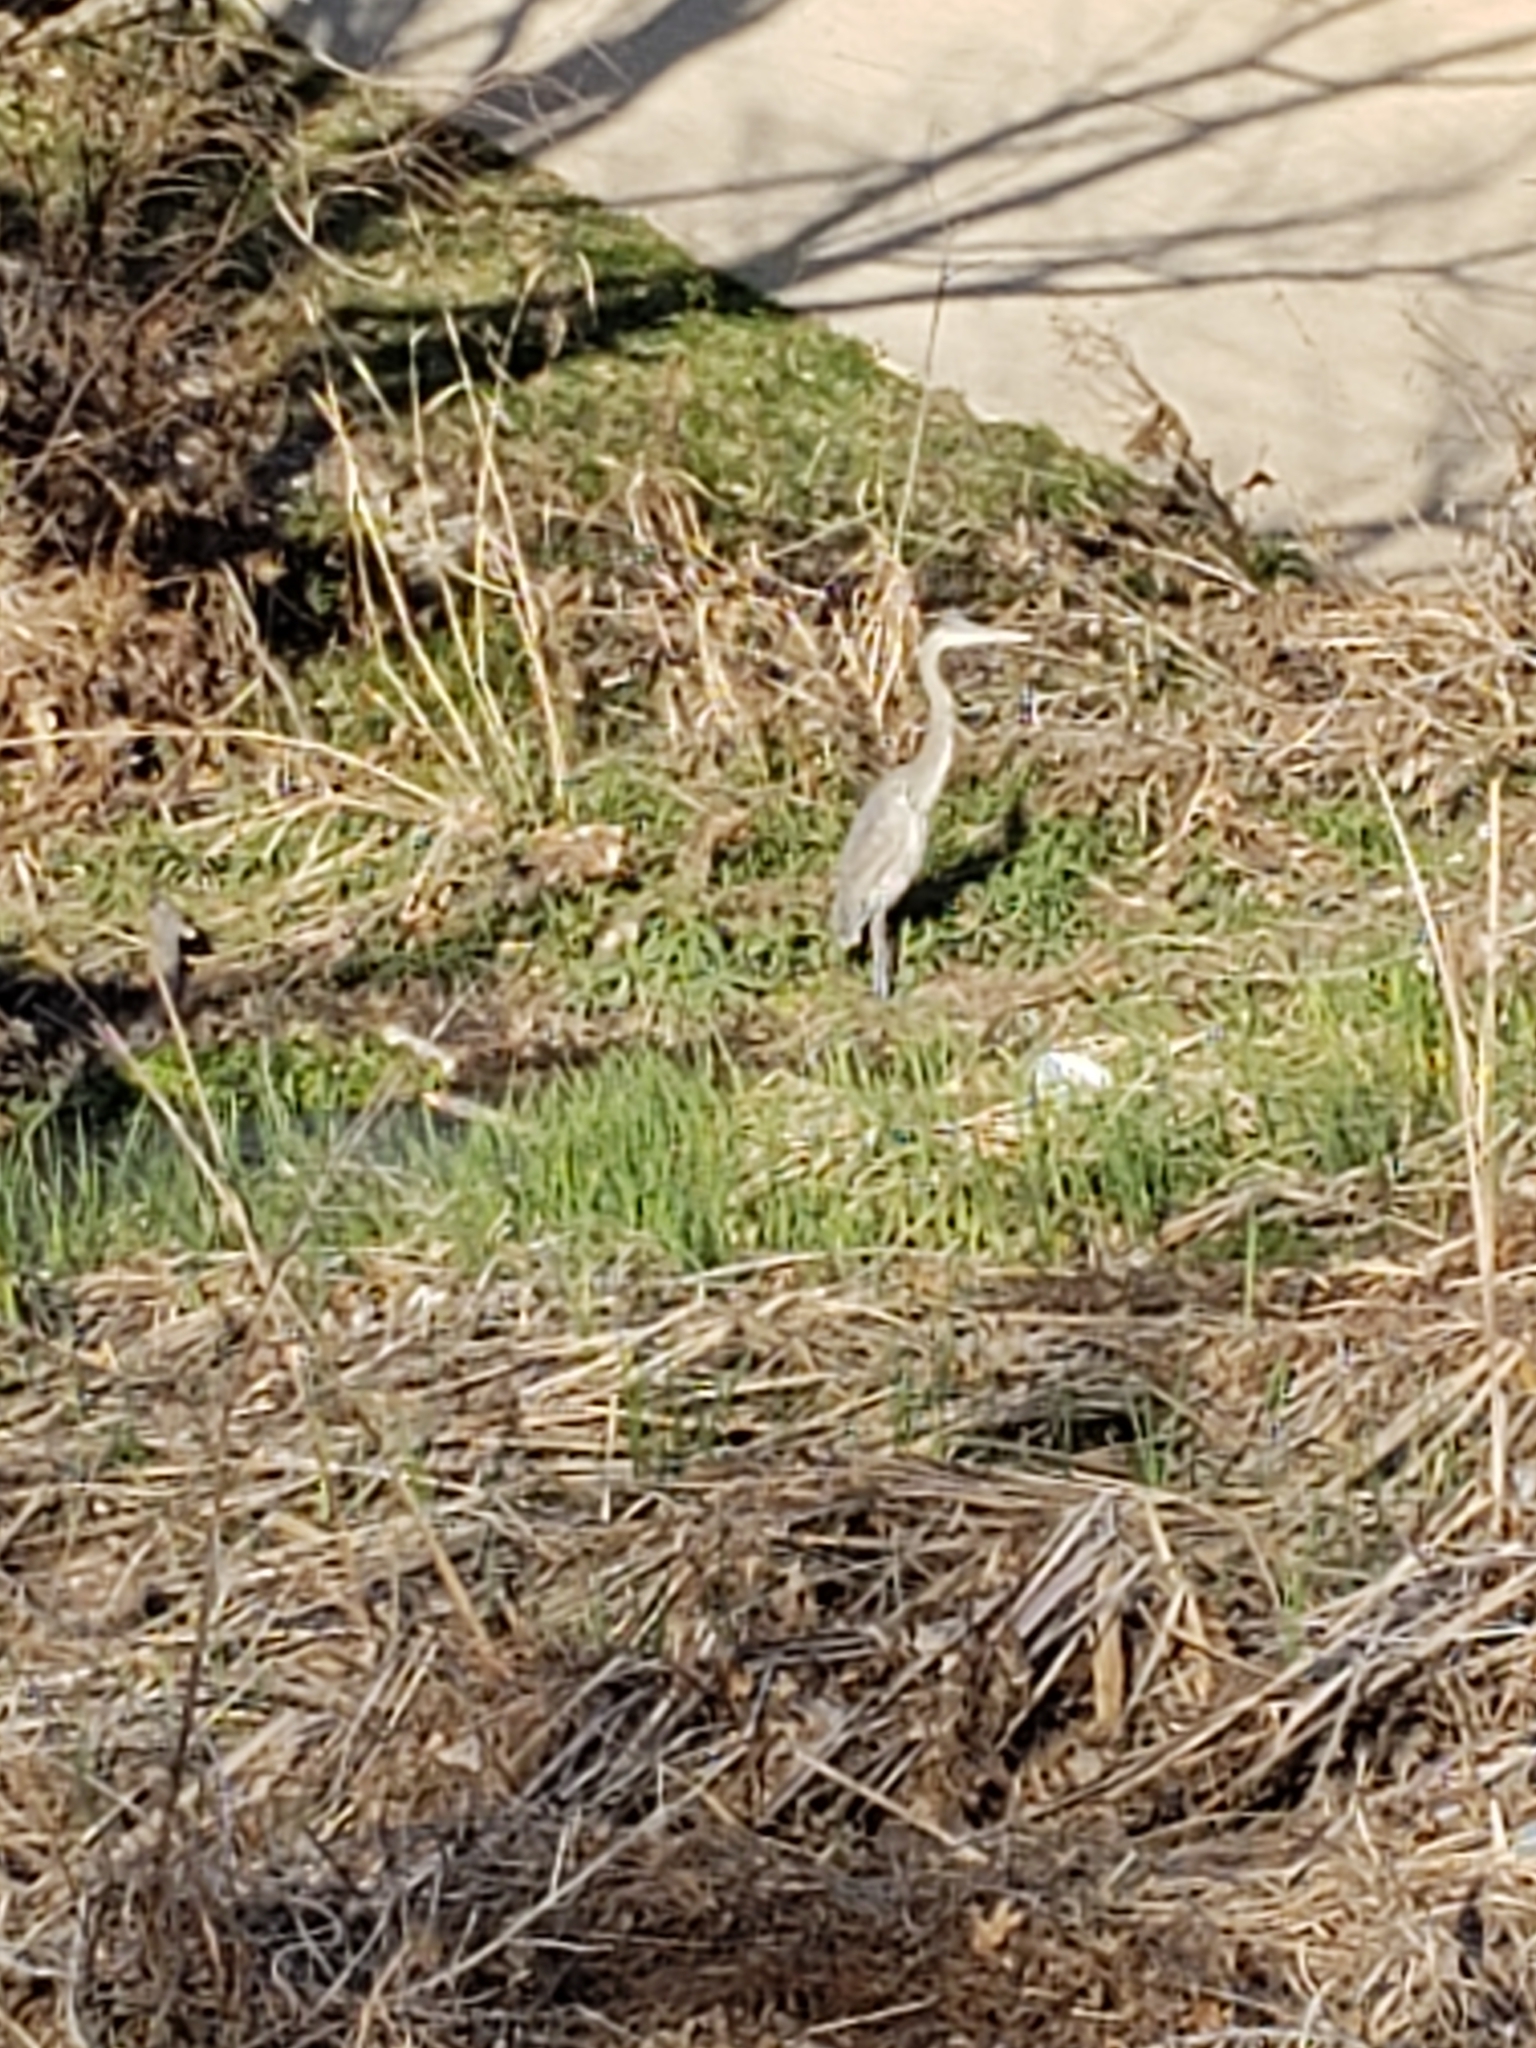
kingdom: Animalia
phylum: Chordata
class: Aves
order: Pelecaniformes
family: Ardeidae
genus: Ardea
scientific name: Ardea herodias
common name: Great blue heron
